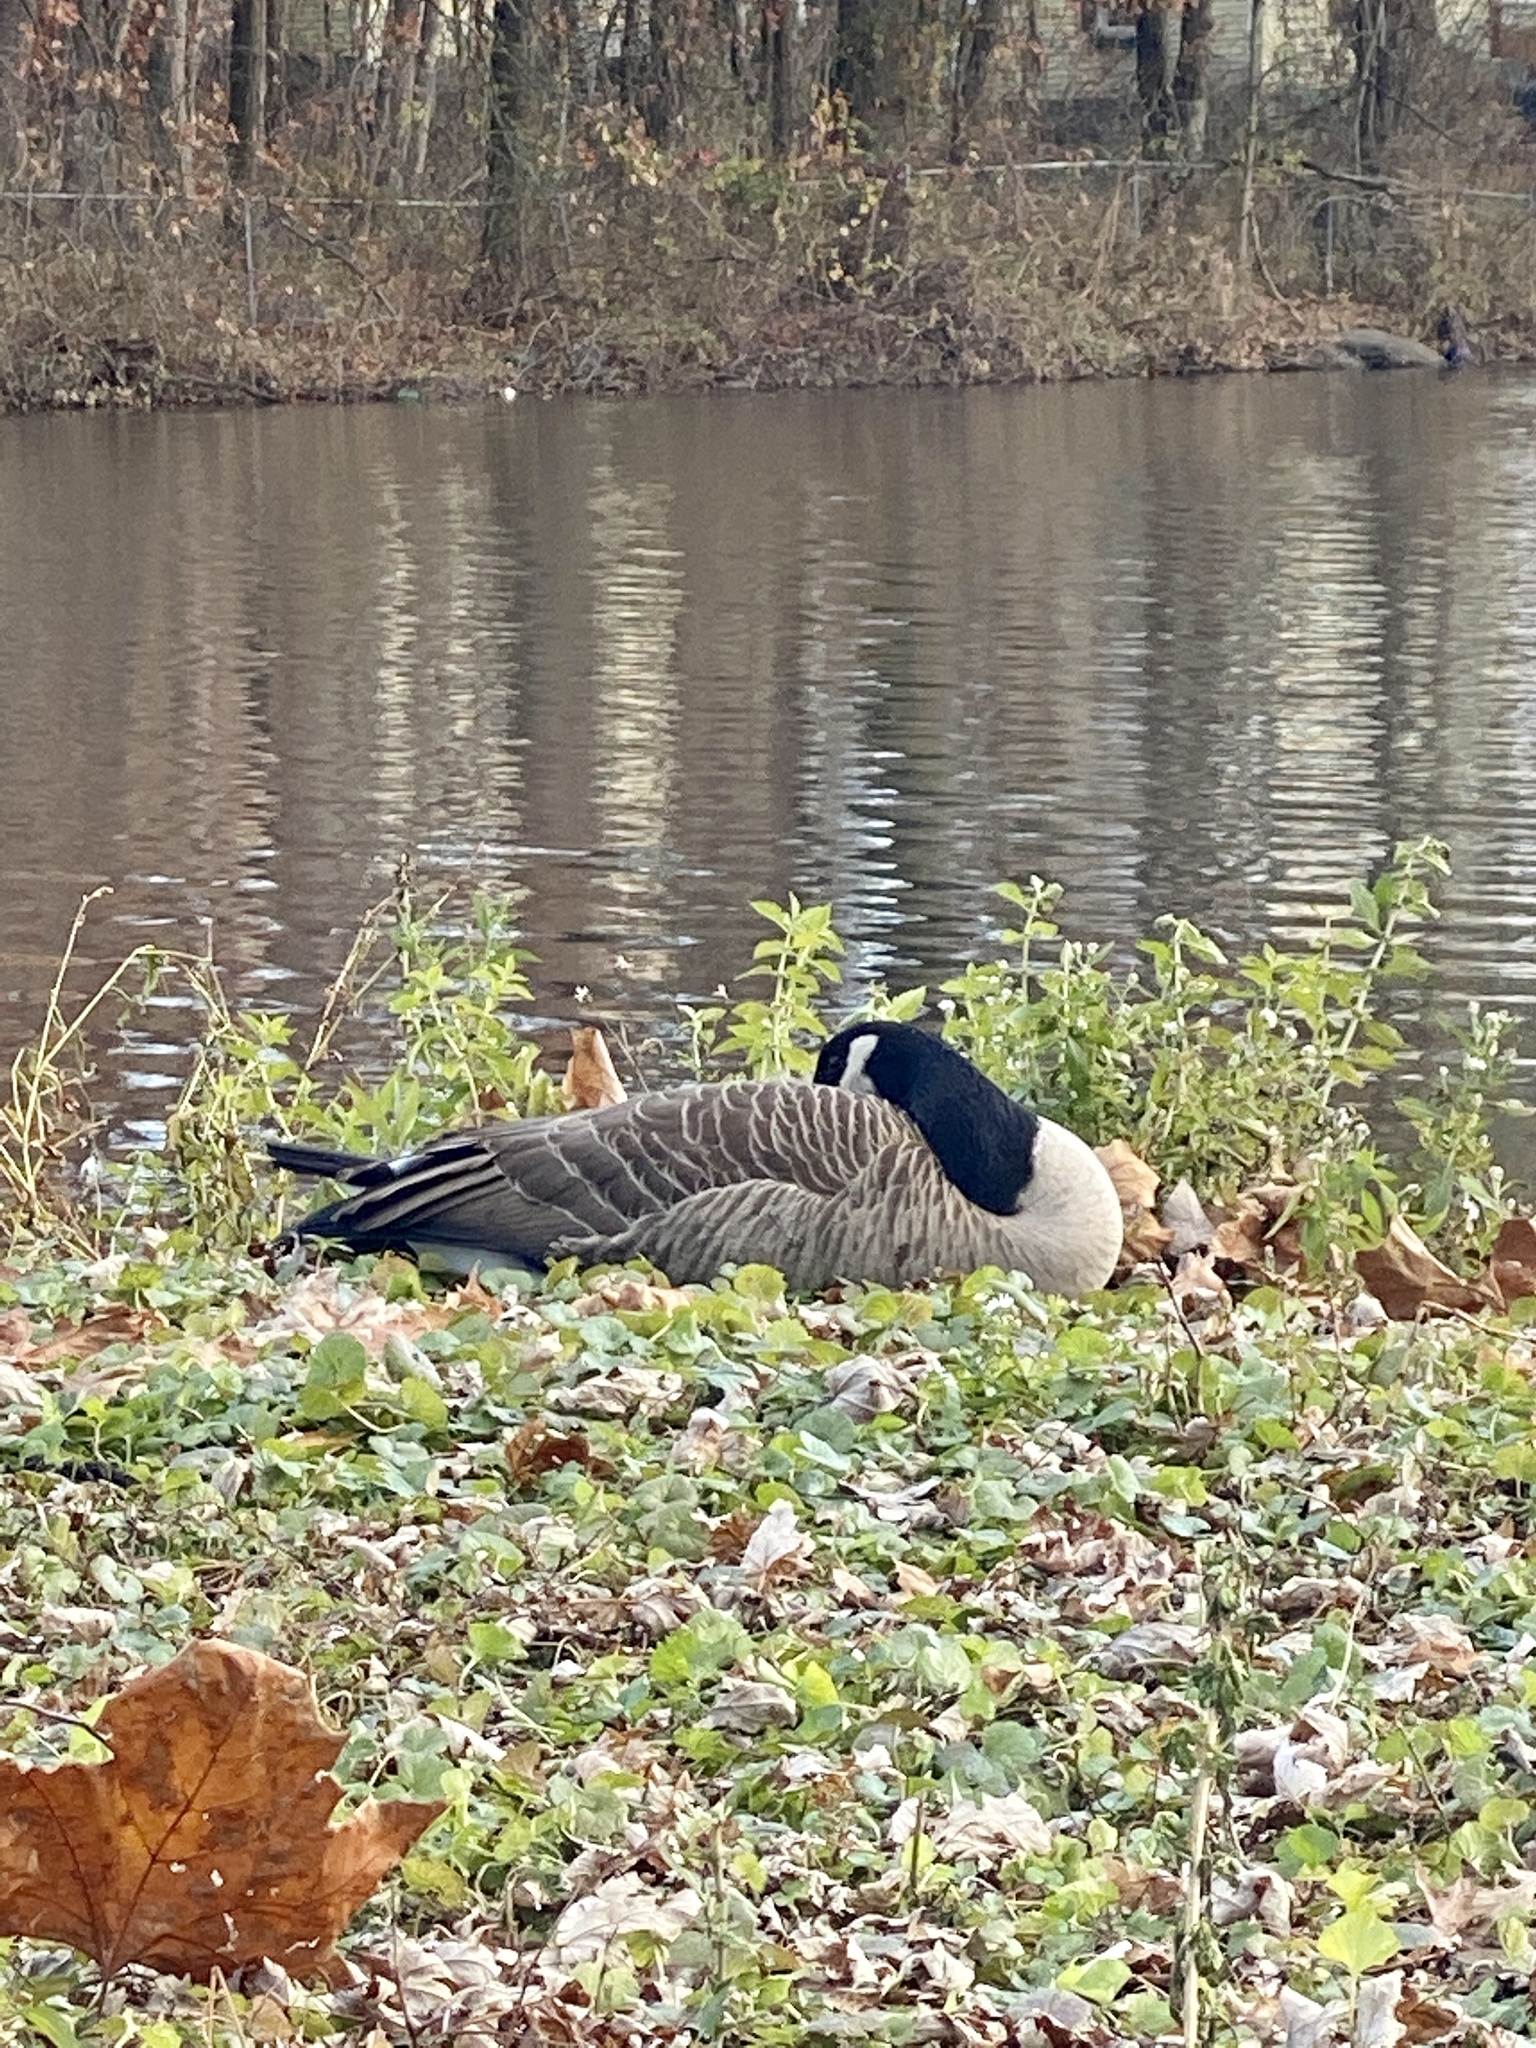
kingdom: Animalia
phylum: Chordata
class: Aves
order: Anseriformes
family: Anatidae
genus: Branta
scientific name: Branta canadensis
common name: Canada goose
